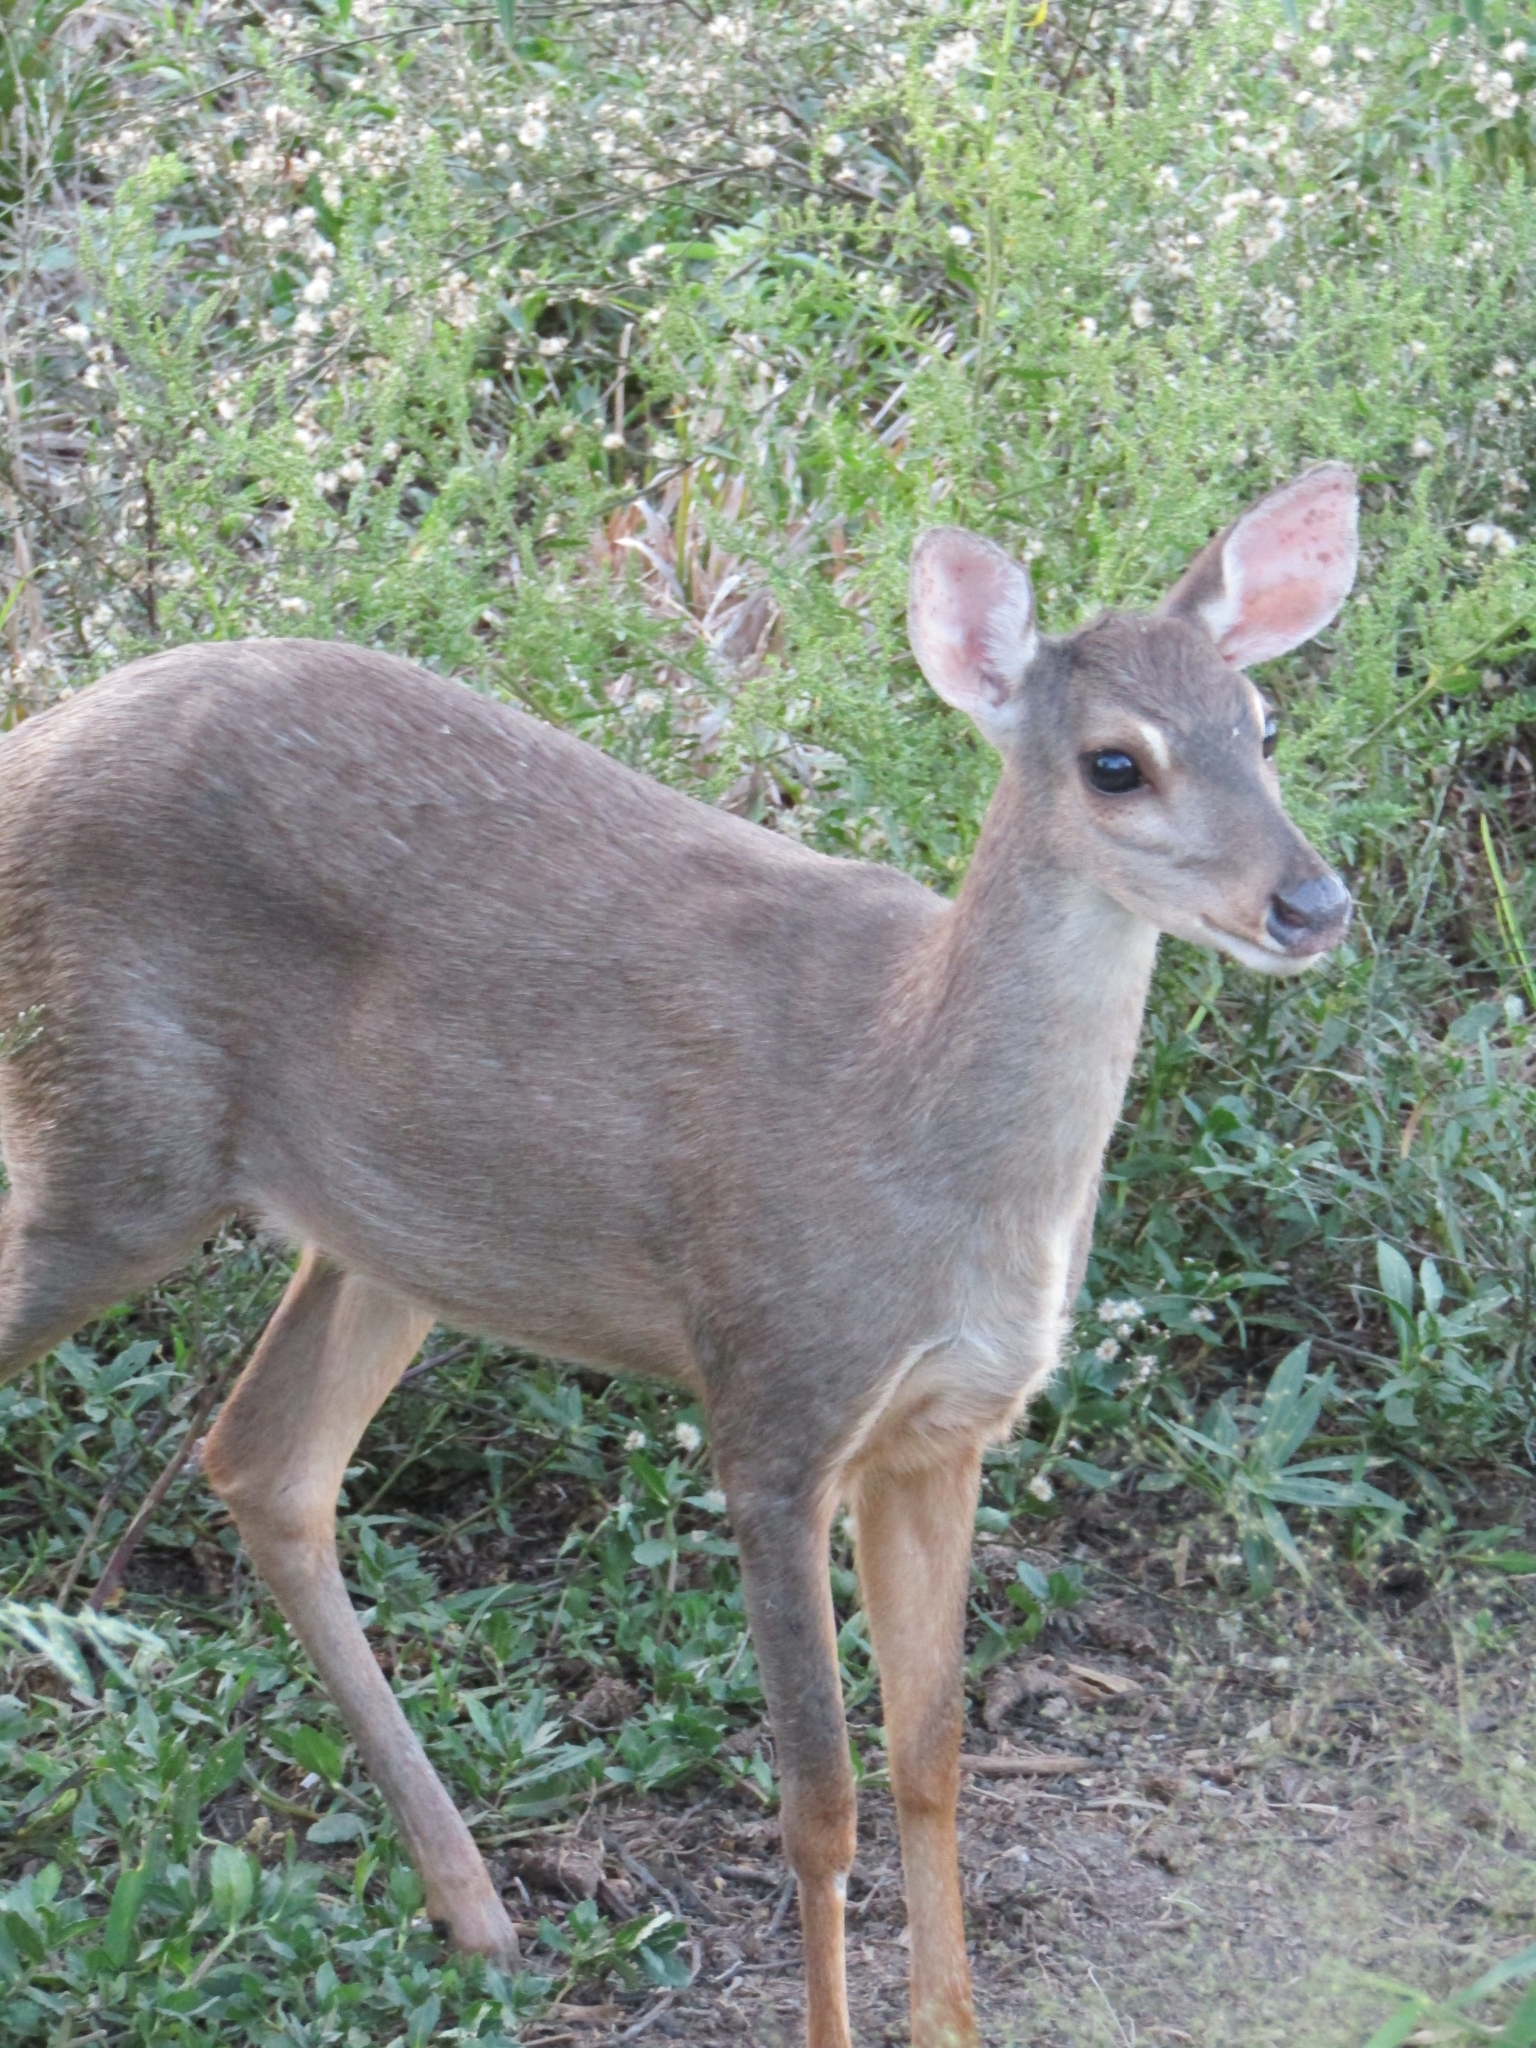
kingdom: Animalia
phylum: Chordata
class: Mammalia
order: Artiodactyla
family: Cervidae
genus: Mazama
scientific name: Mazama gouazoubira
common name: Gray brocket
